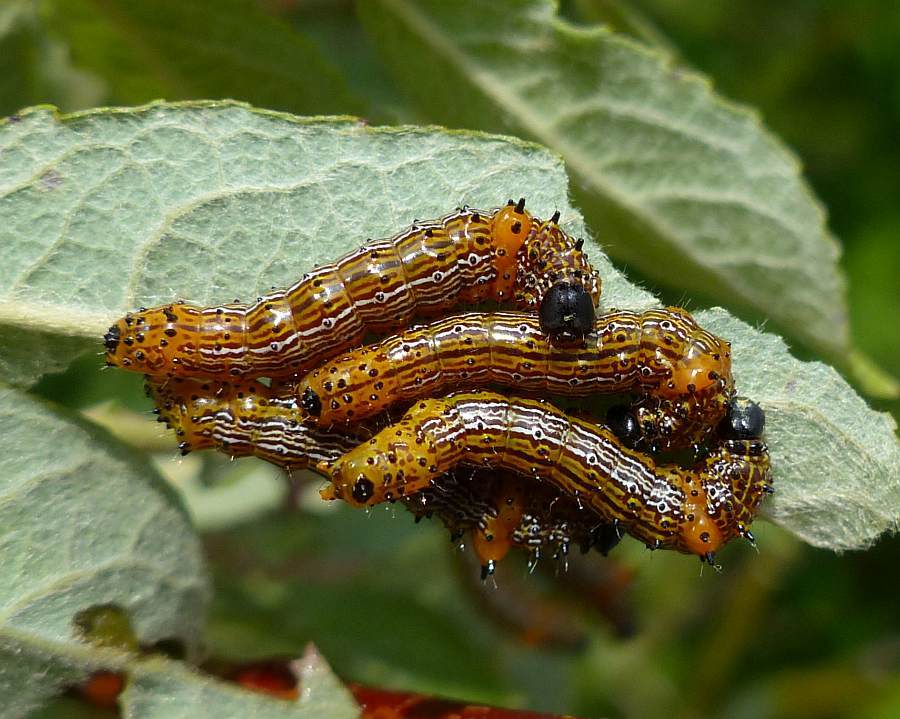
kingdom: Animalia
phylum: Arthropoda
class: Insecta
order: Lepidoptera
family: Notodontidae
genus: Schizura
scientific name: Schizura
